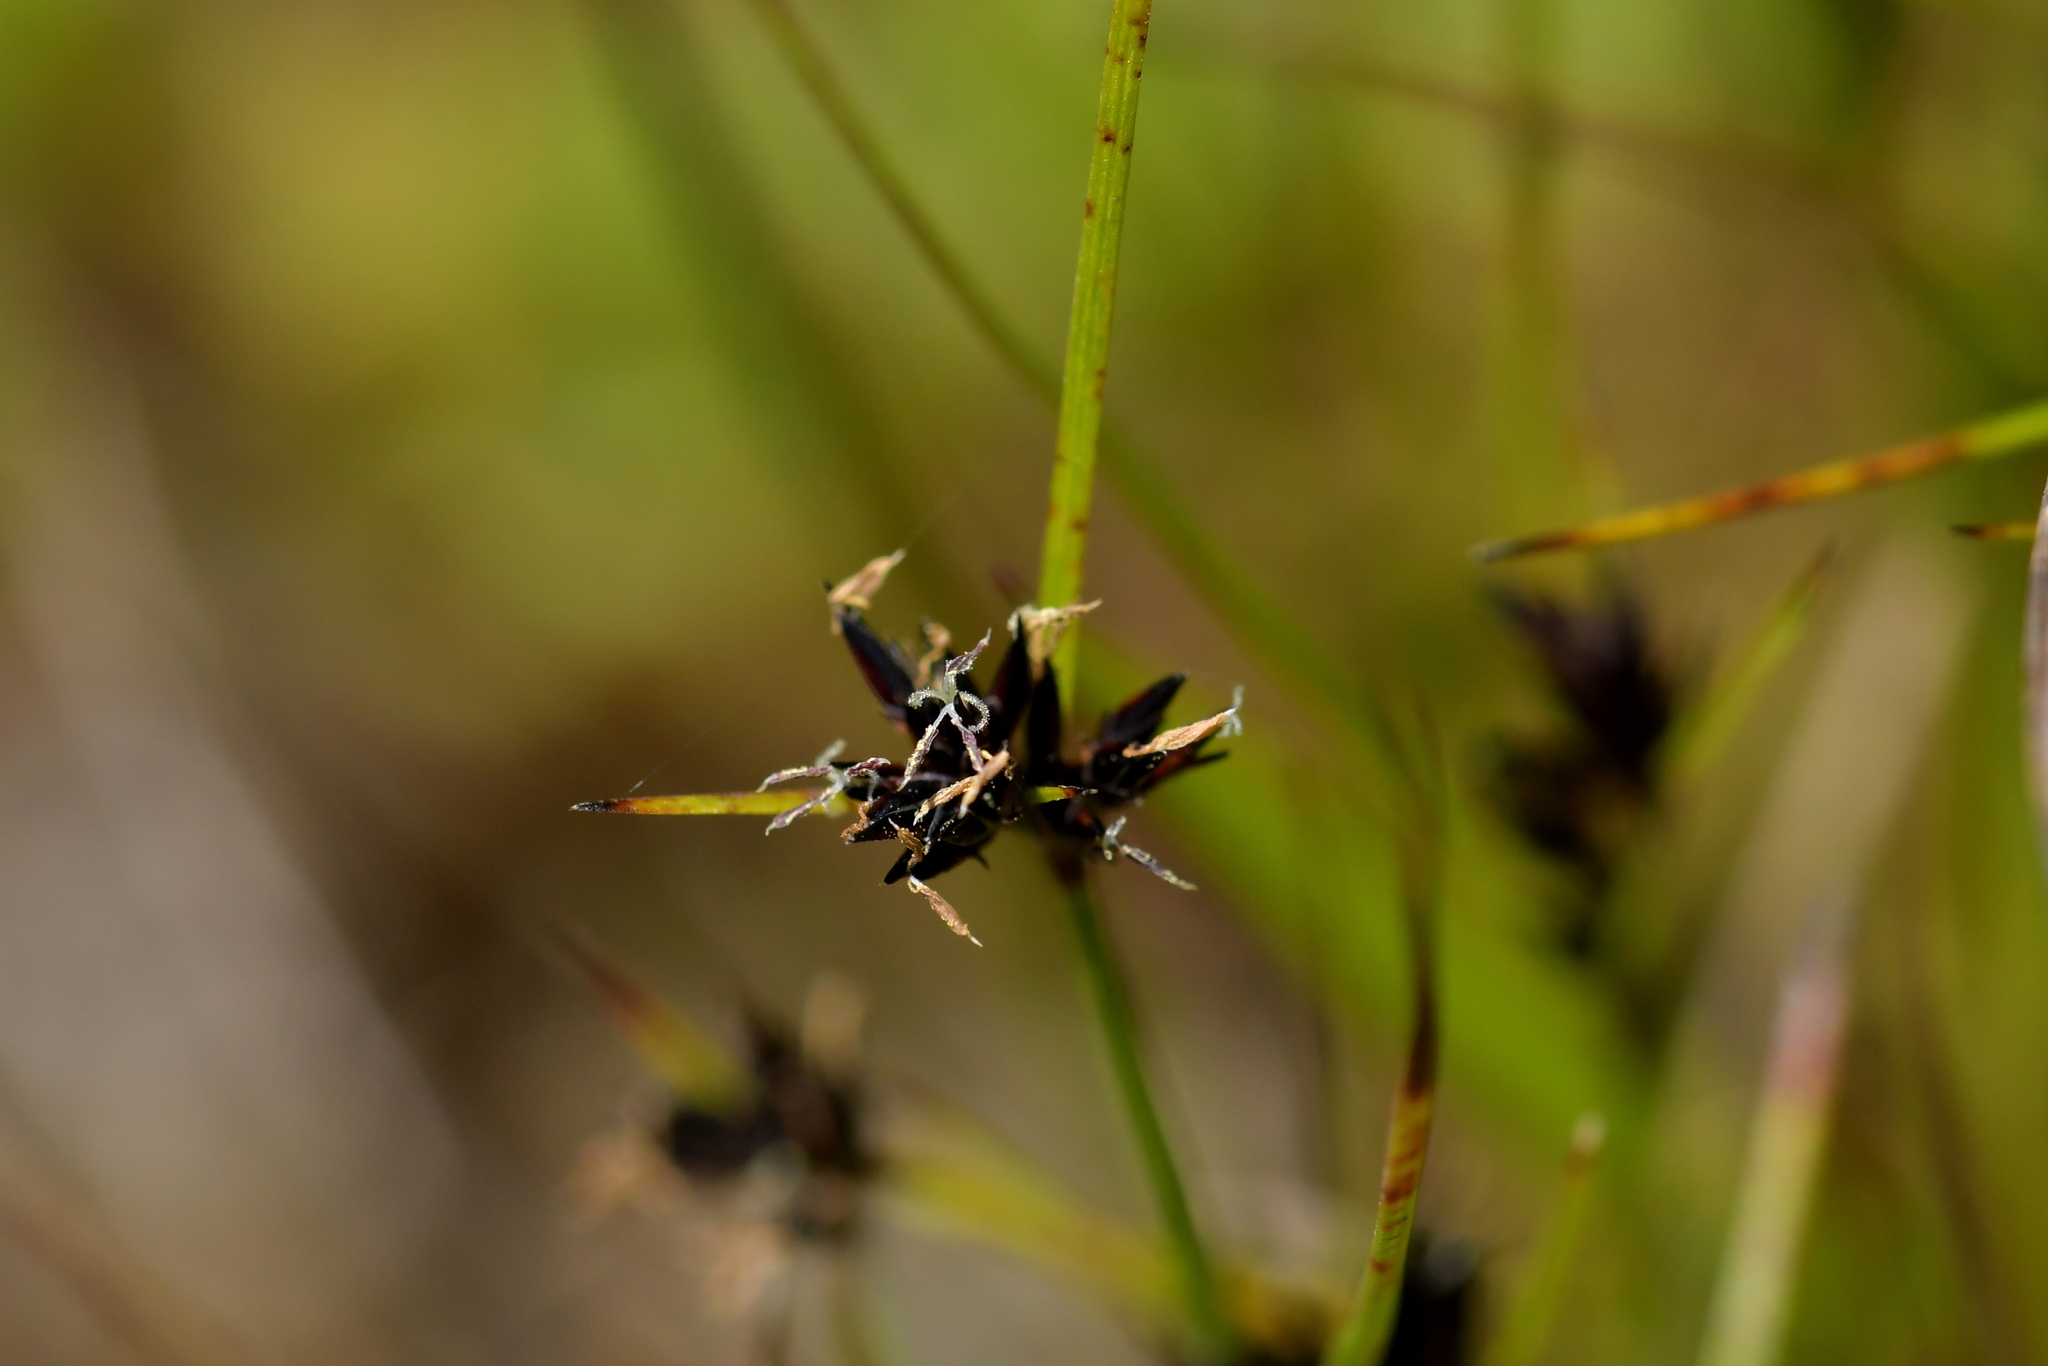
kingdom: Plantae
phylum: Tracheophyta
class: Liliopsida
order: Poales
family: Cyperaceae
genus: Schoenus
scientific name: Schoenus apogon
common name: Smooth bogrush
